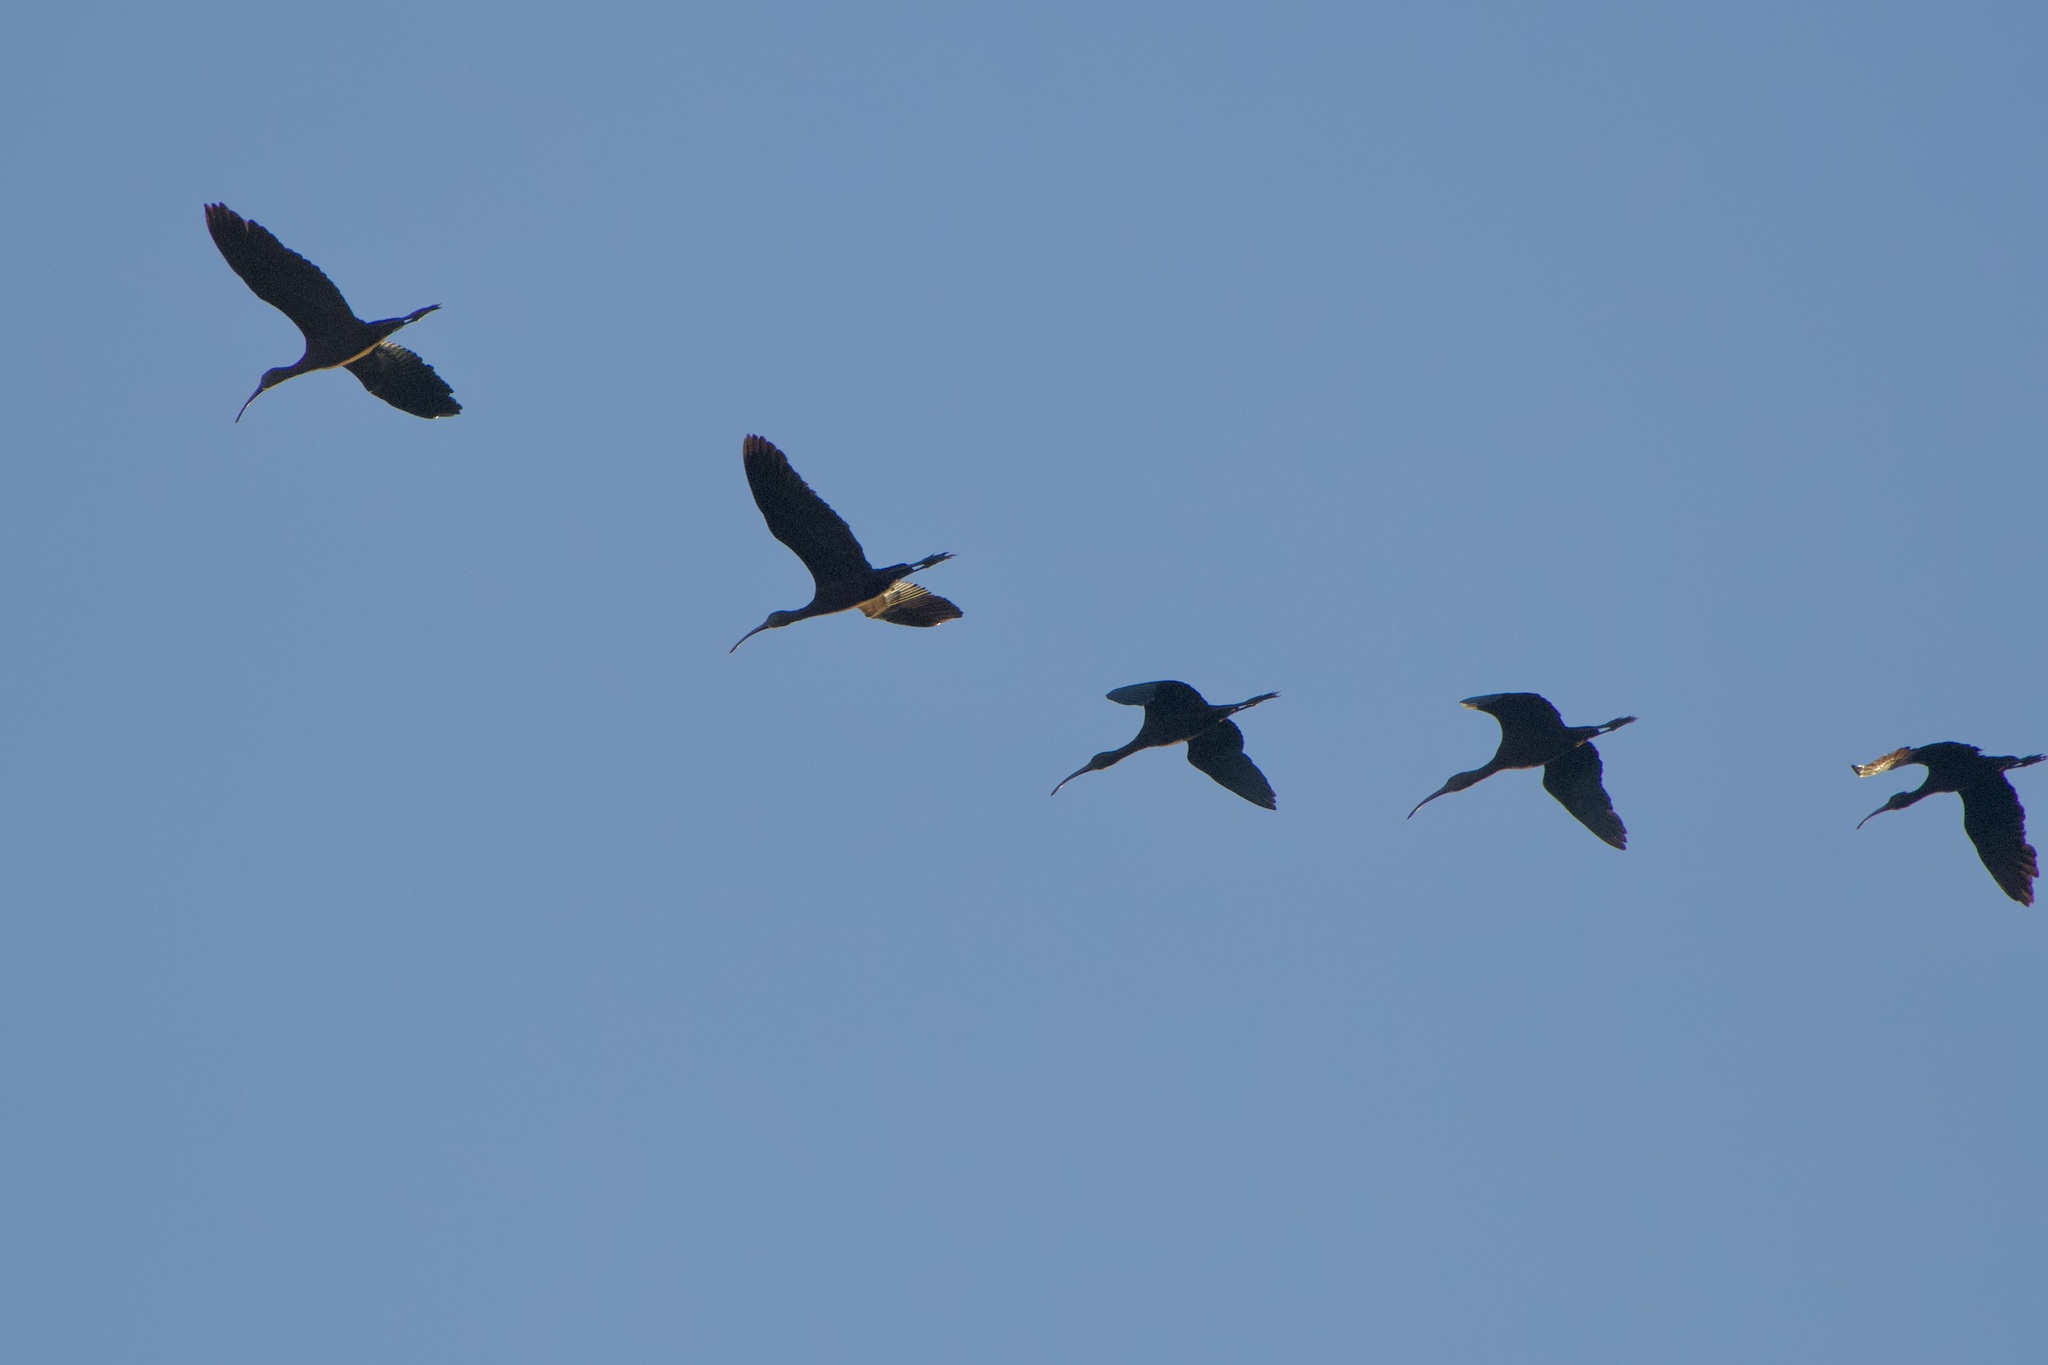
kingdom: Animalia
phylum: Chordata
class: Aves
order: Pelecaniformes
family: Threskiornithidae
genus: Plegadis
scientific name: Plegadis chihi
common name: White-faced ibis
